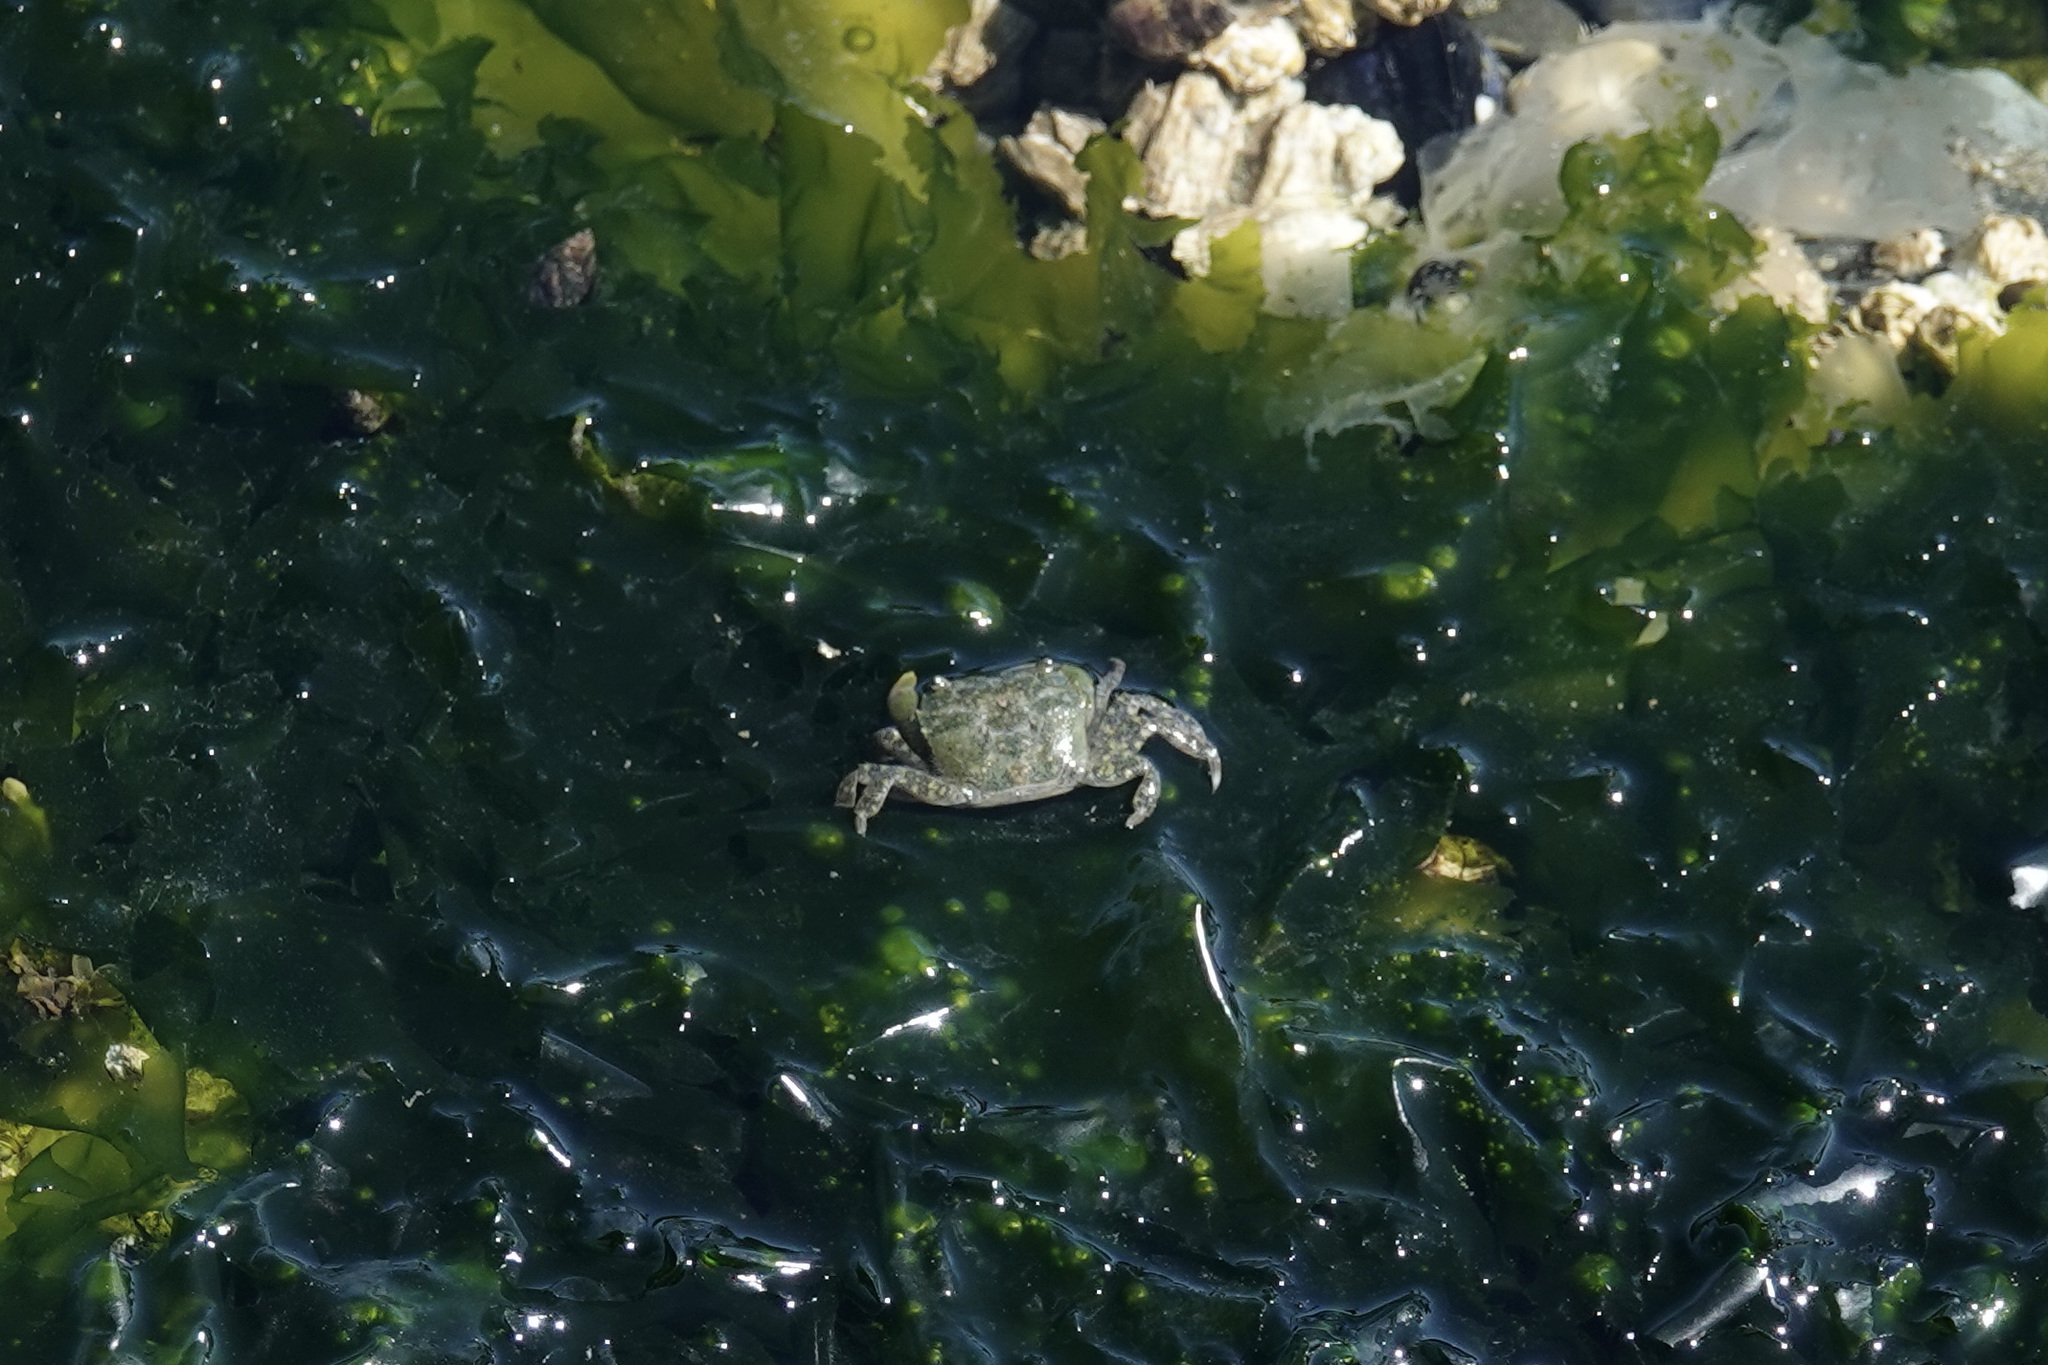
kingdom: Animalia
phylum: Arthropoda
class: Malacostraca
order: Decapoda
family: Varunidae
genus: Hemigrapsus
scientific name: Hemigrapsus oregonensis
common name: Yellow shore crab
